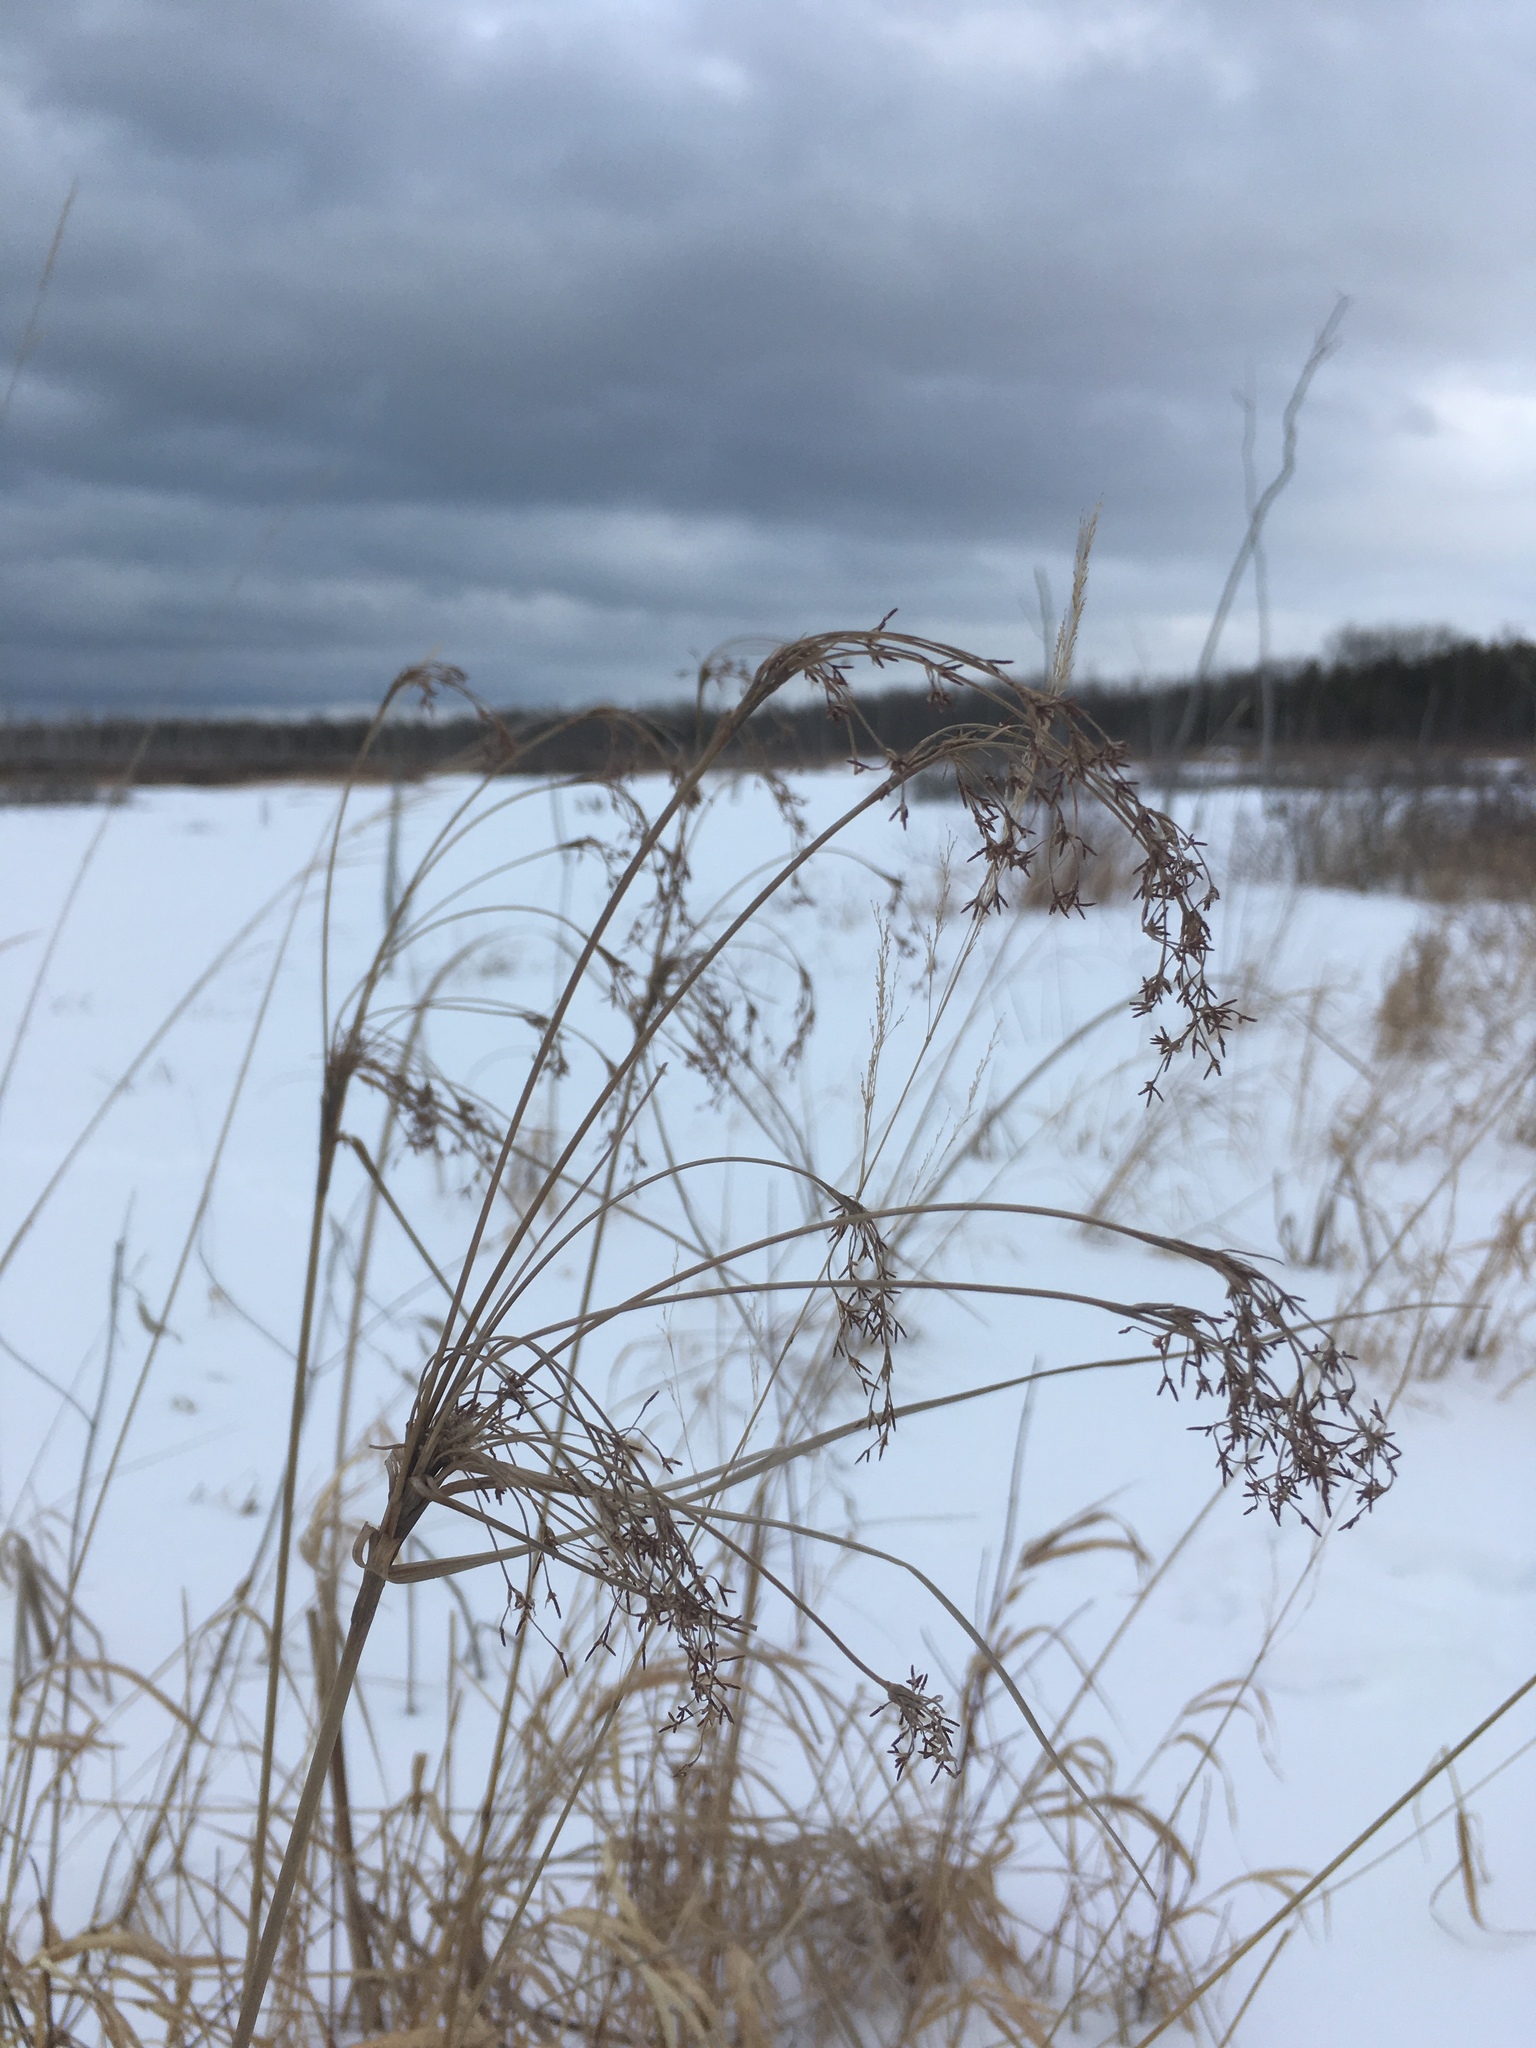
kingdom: Plantae
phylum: Tracheophyta
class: Liliopsida
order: Poales
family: Cyperaceae
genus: Scirpus
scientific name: Scirpus cyperinus
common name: Black-sheathed bulrush
